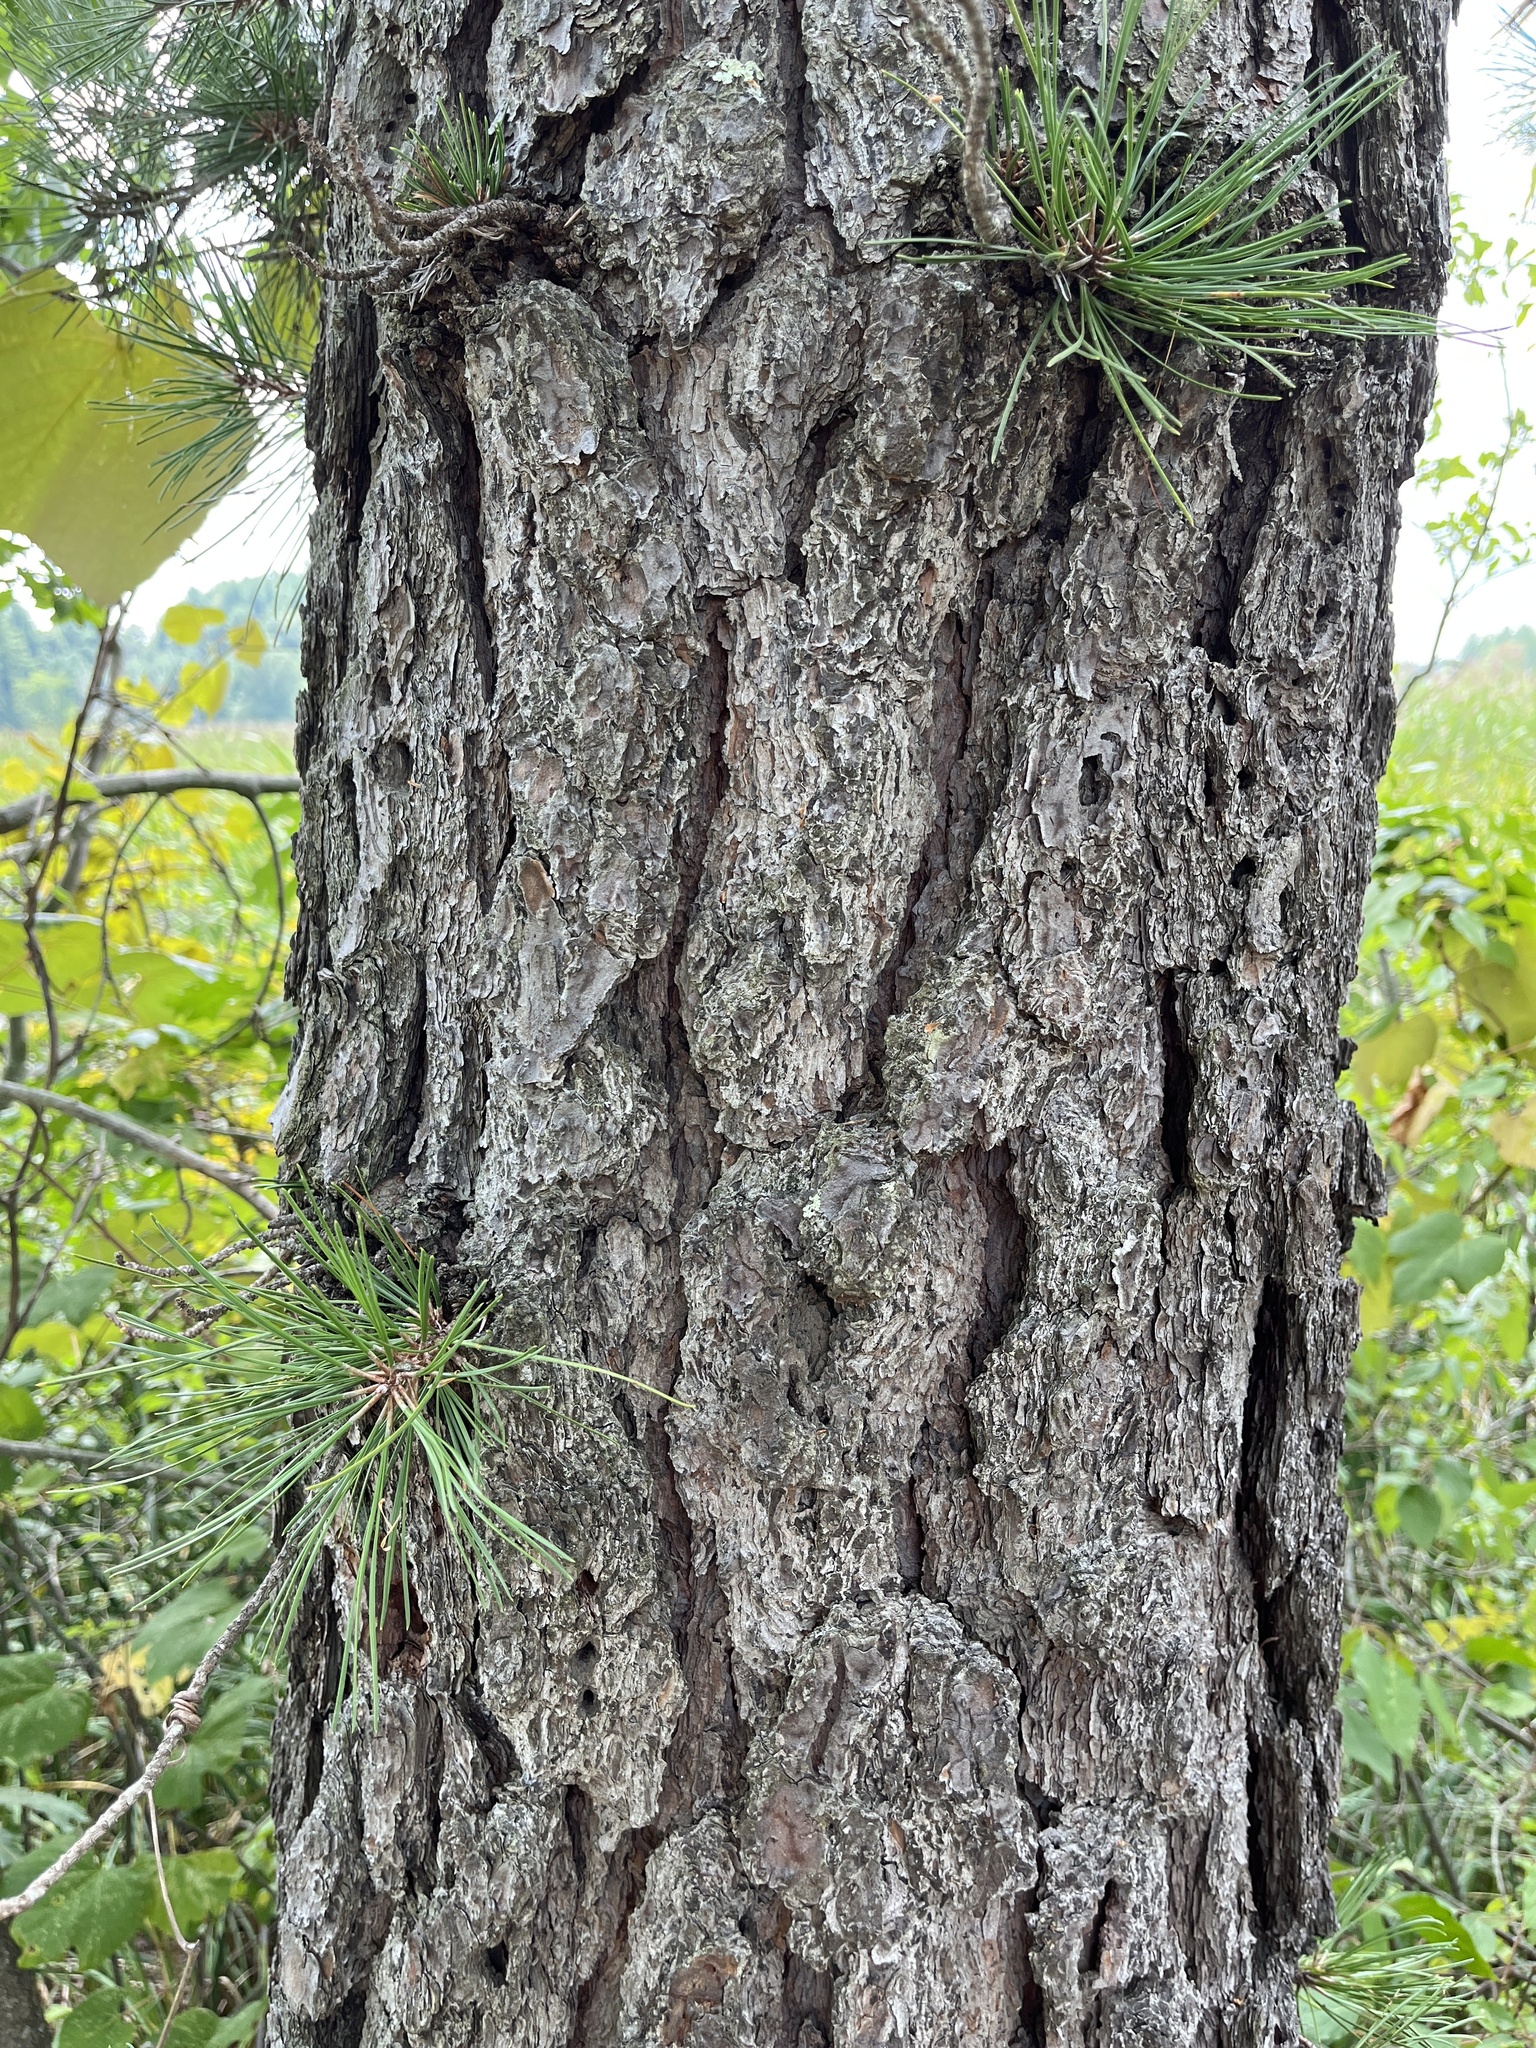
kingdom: Plantae
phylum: Tracheophyta
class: Pinopsida
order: Pinales
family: Pinaceae
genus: Pinus
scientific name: Pinus rigida
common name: Pitch pine
